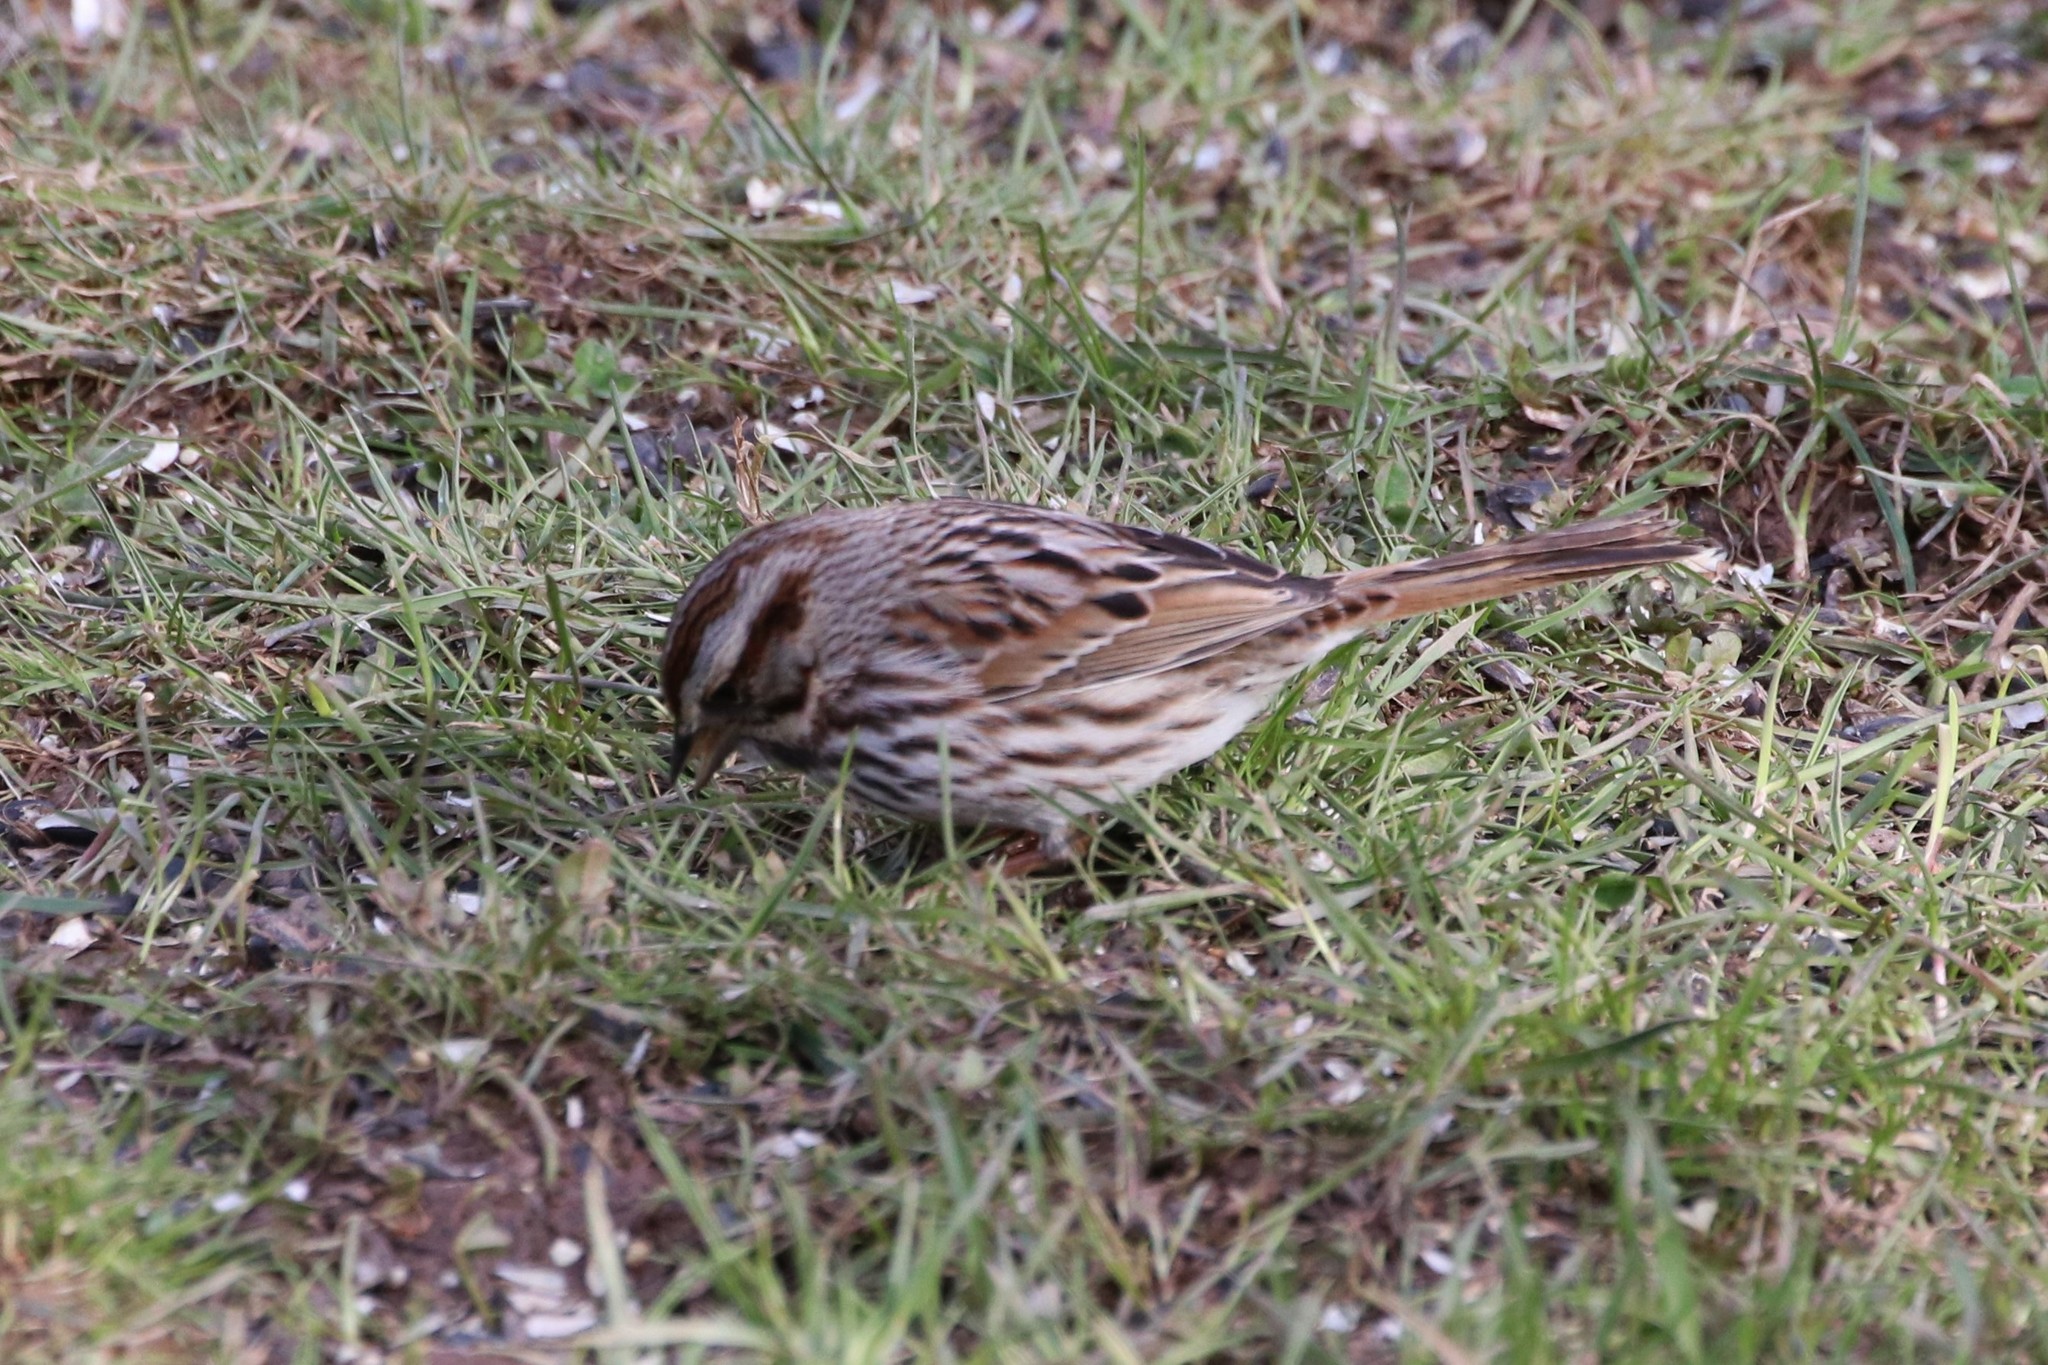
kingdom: Animalia
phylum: Chordata
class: Aves
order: Passeriformes
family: Passerellidae
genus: Melospiza
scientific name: Melospiza melodia
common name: Song sparrow
